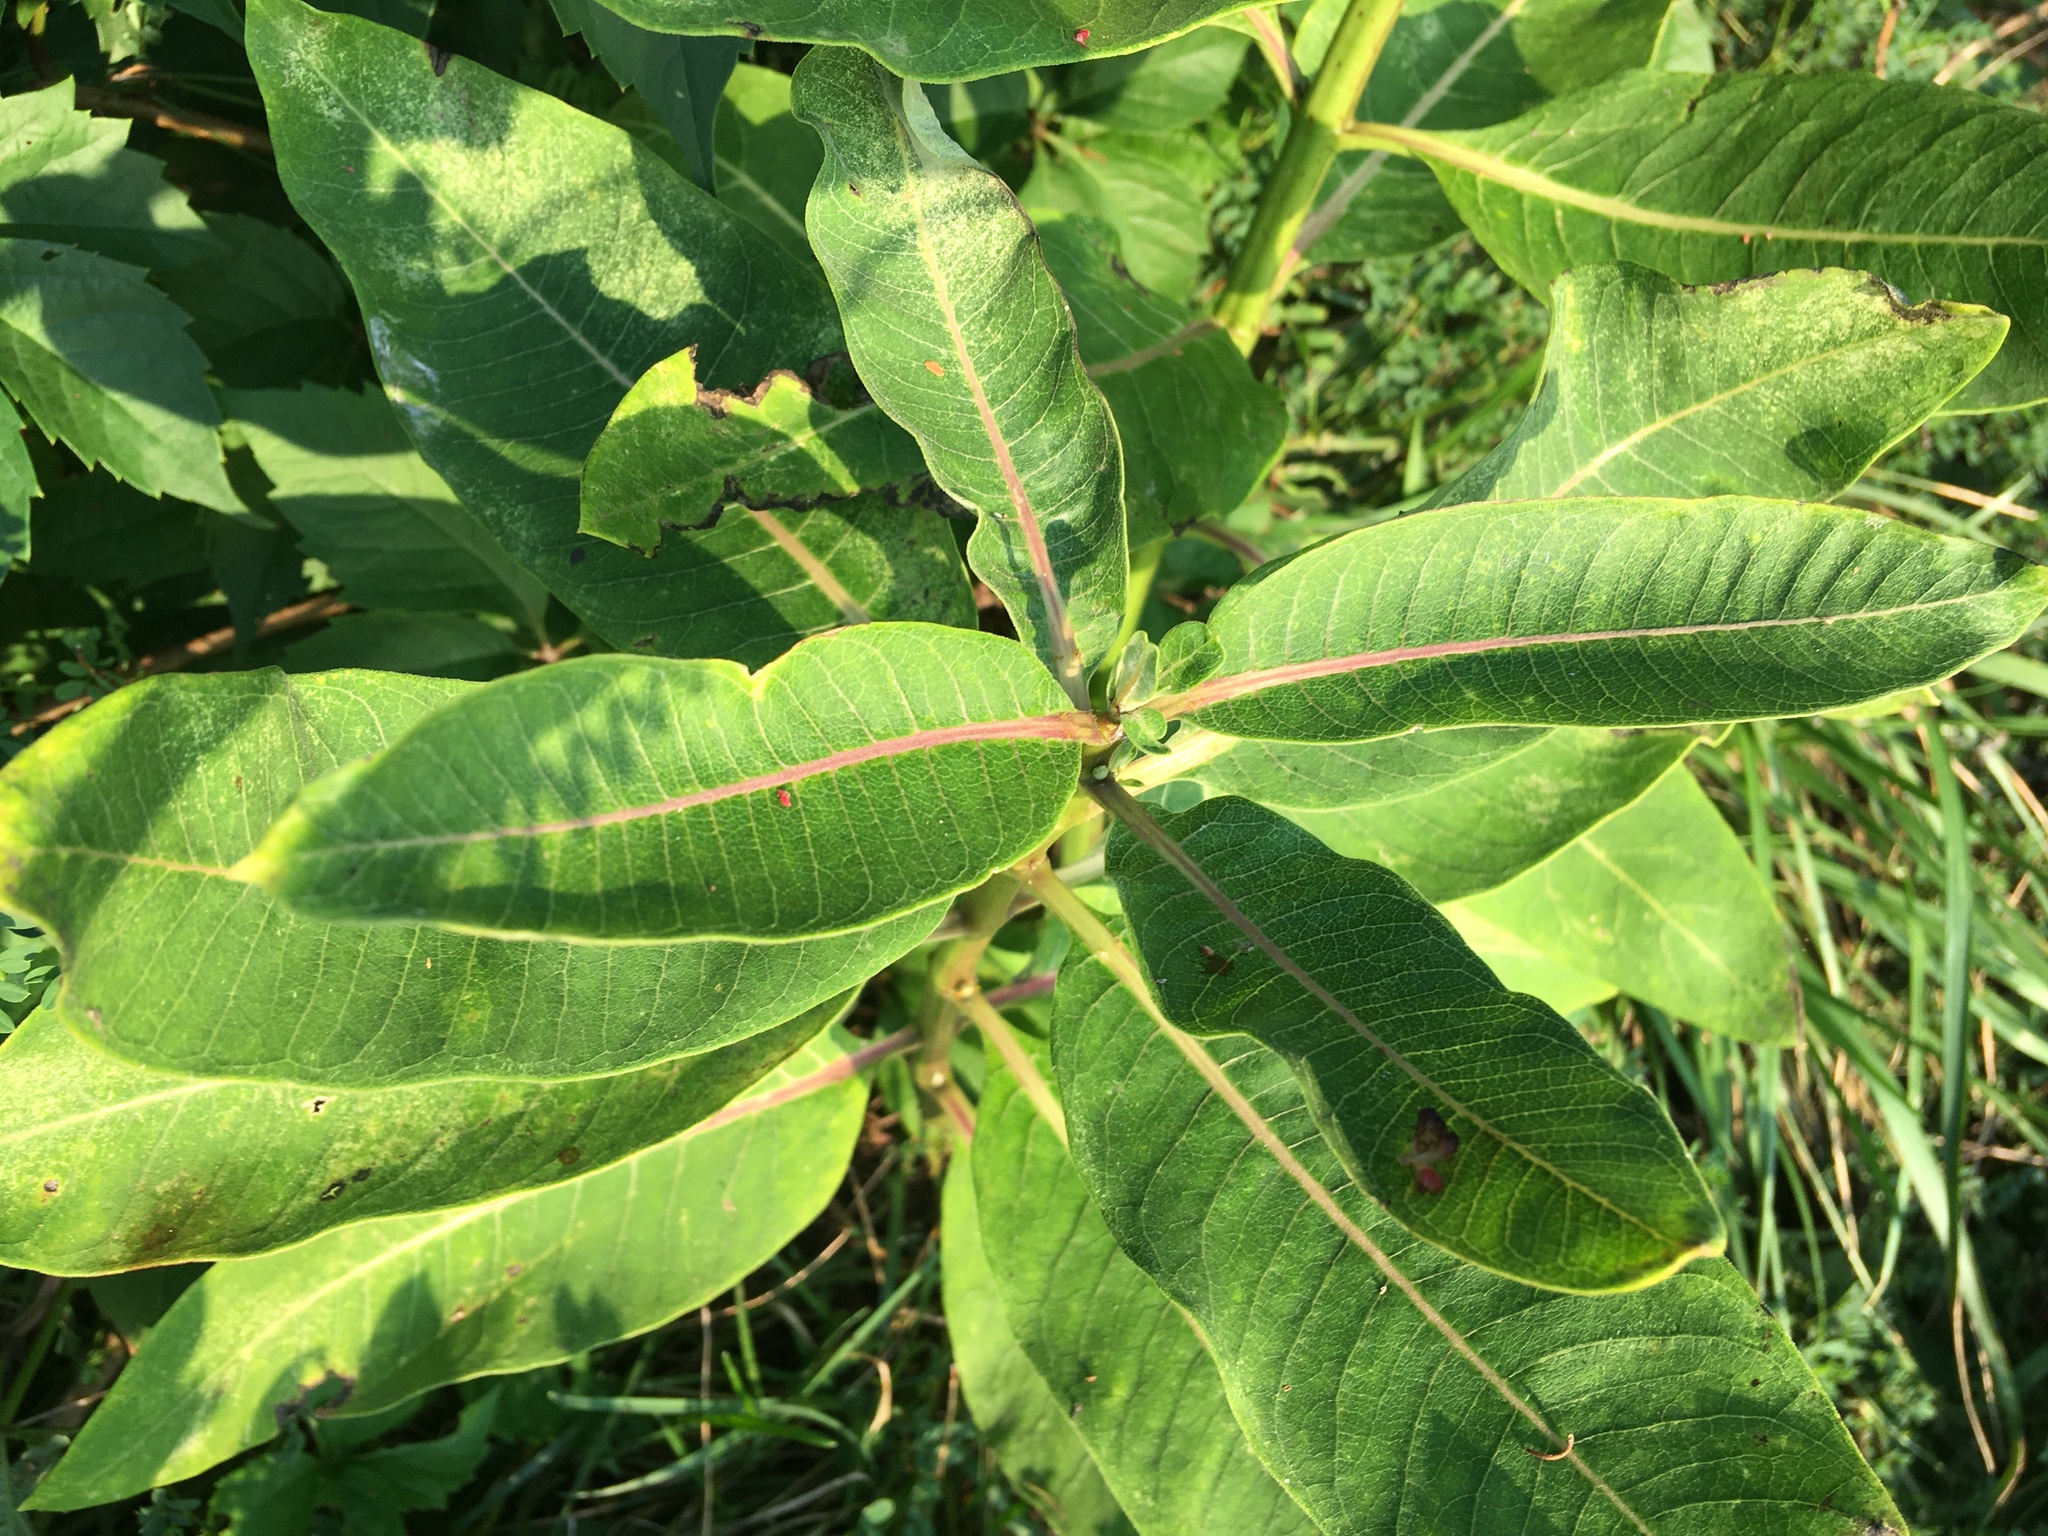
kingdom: Plantae
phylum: Tracheophyta
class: Magnoliopsida
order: Gentianales
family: Apocynaceae
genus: Asclepias
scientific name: Asclepias syriaca
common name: Common milkweed
